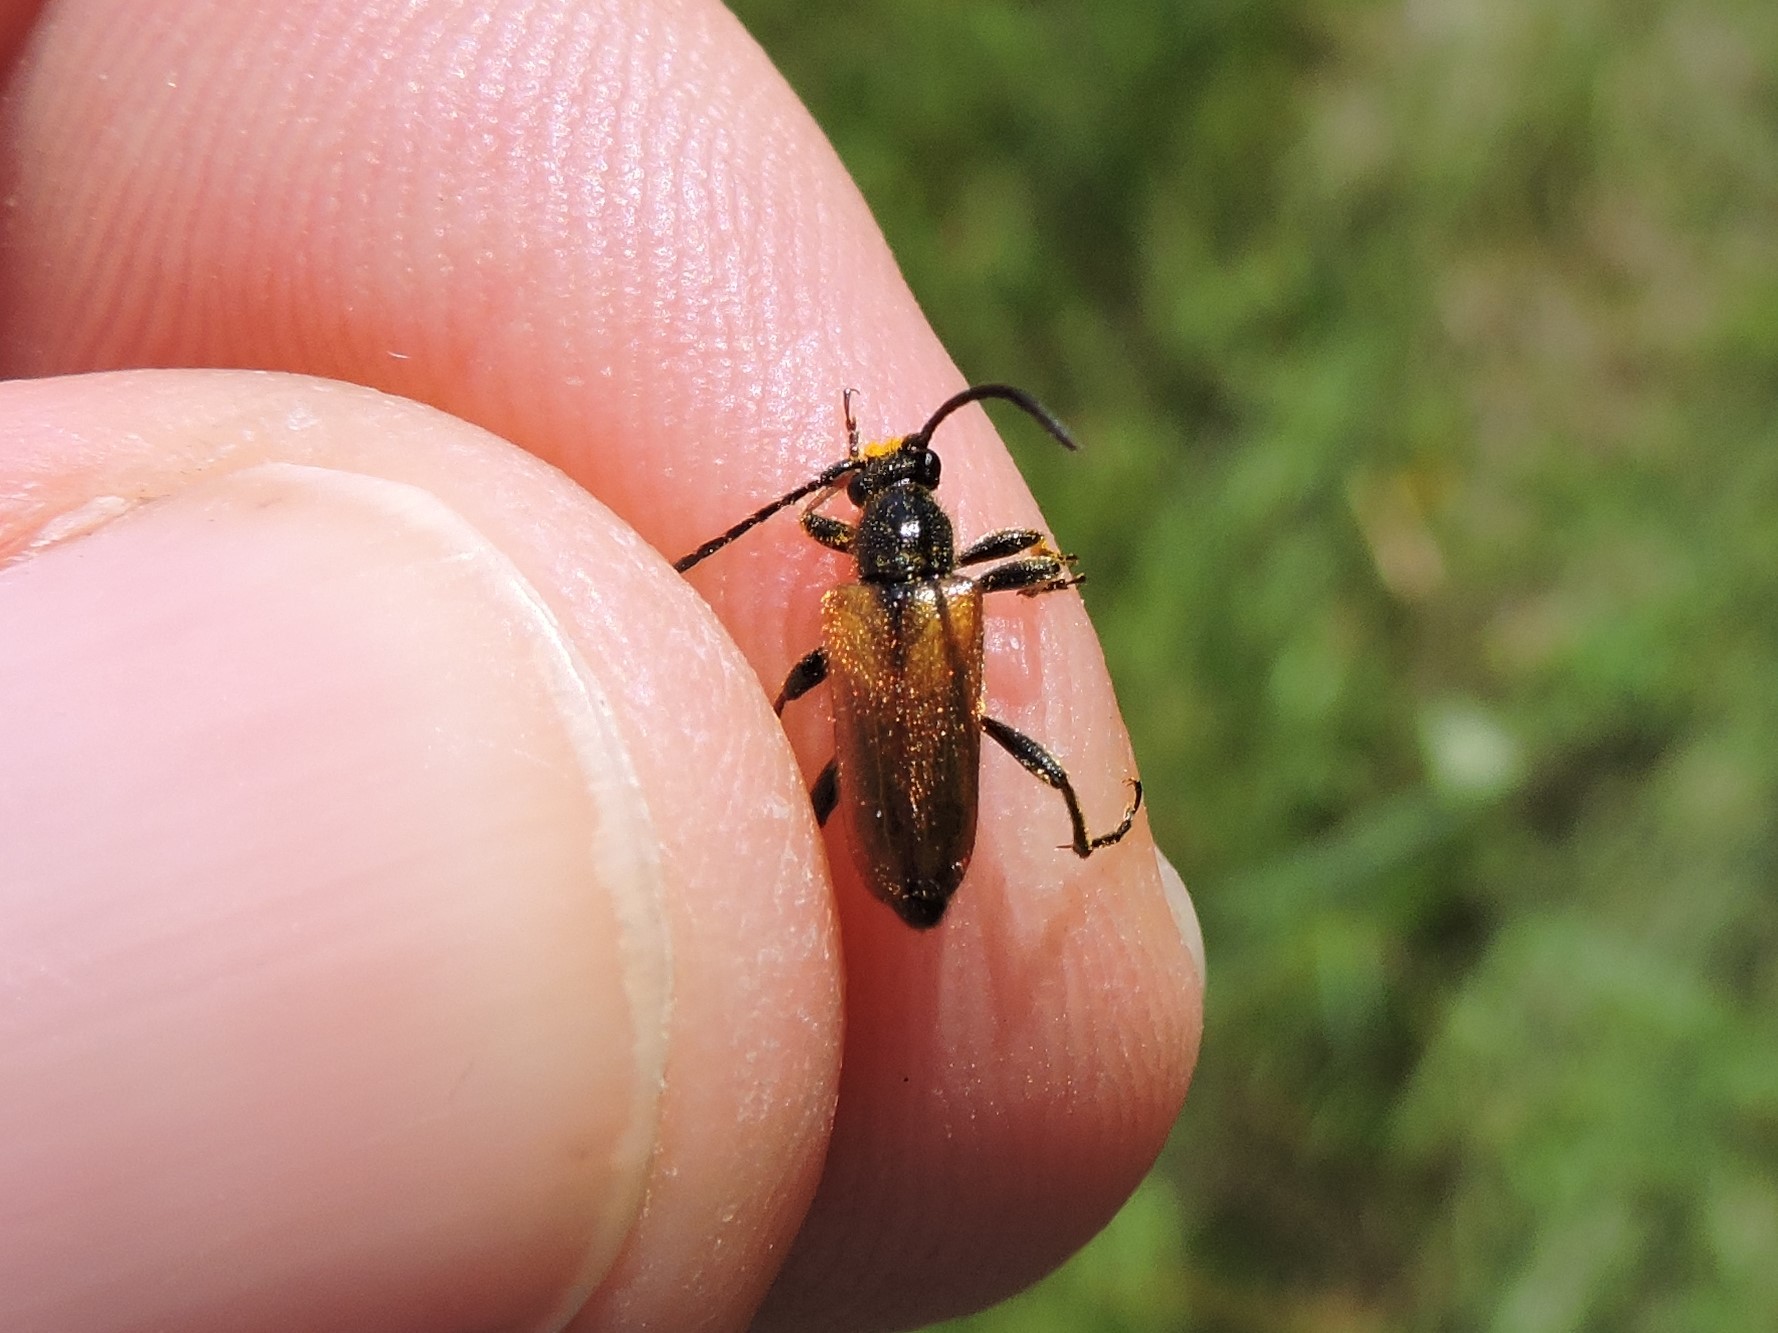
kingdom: Animalia
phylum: Arthropoda
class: Insecta
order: Coleoptera
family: Cerambycidae
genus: Pseudovadonia
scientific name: Pseudovadonia livida
